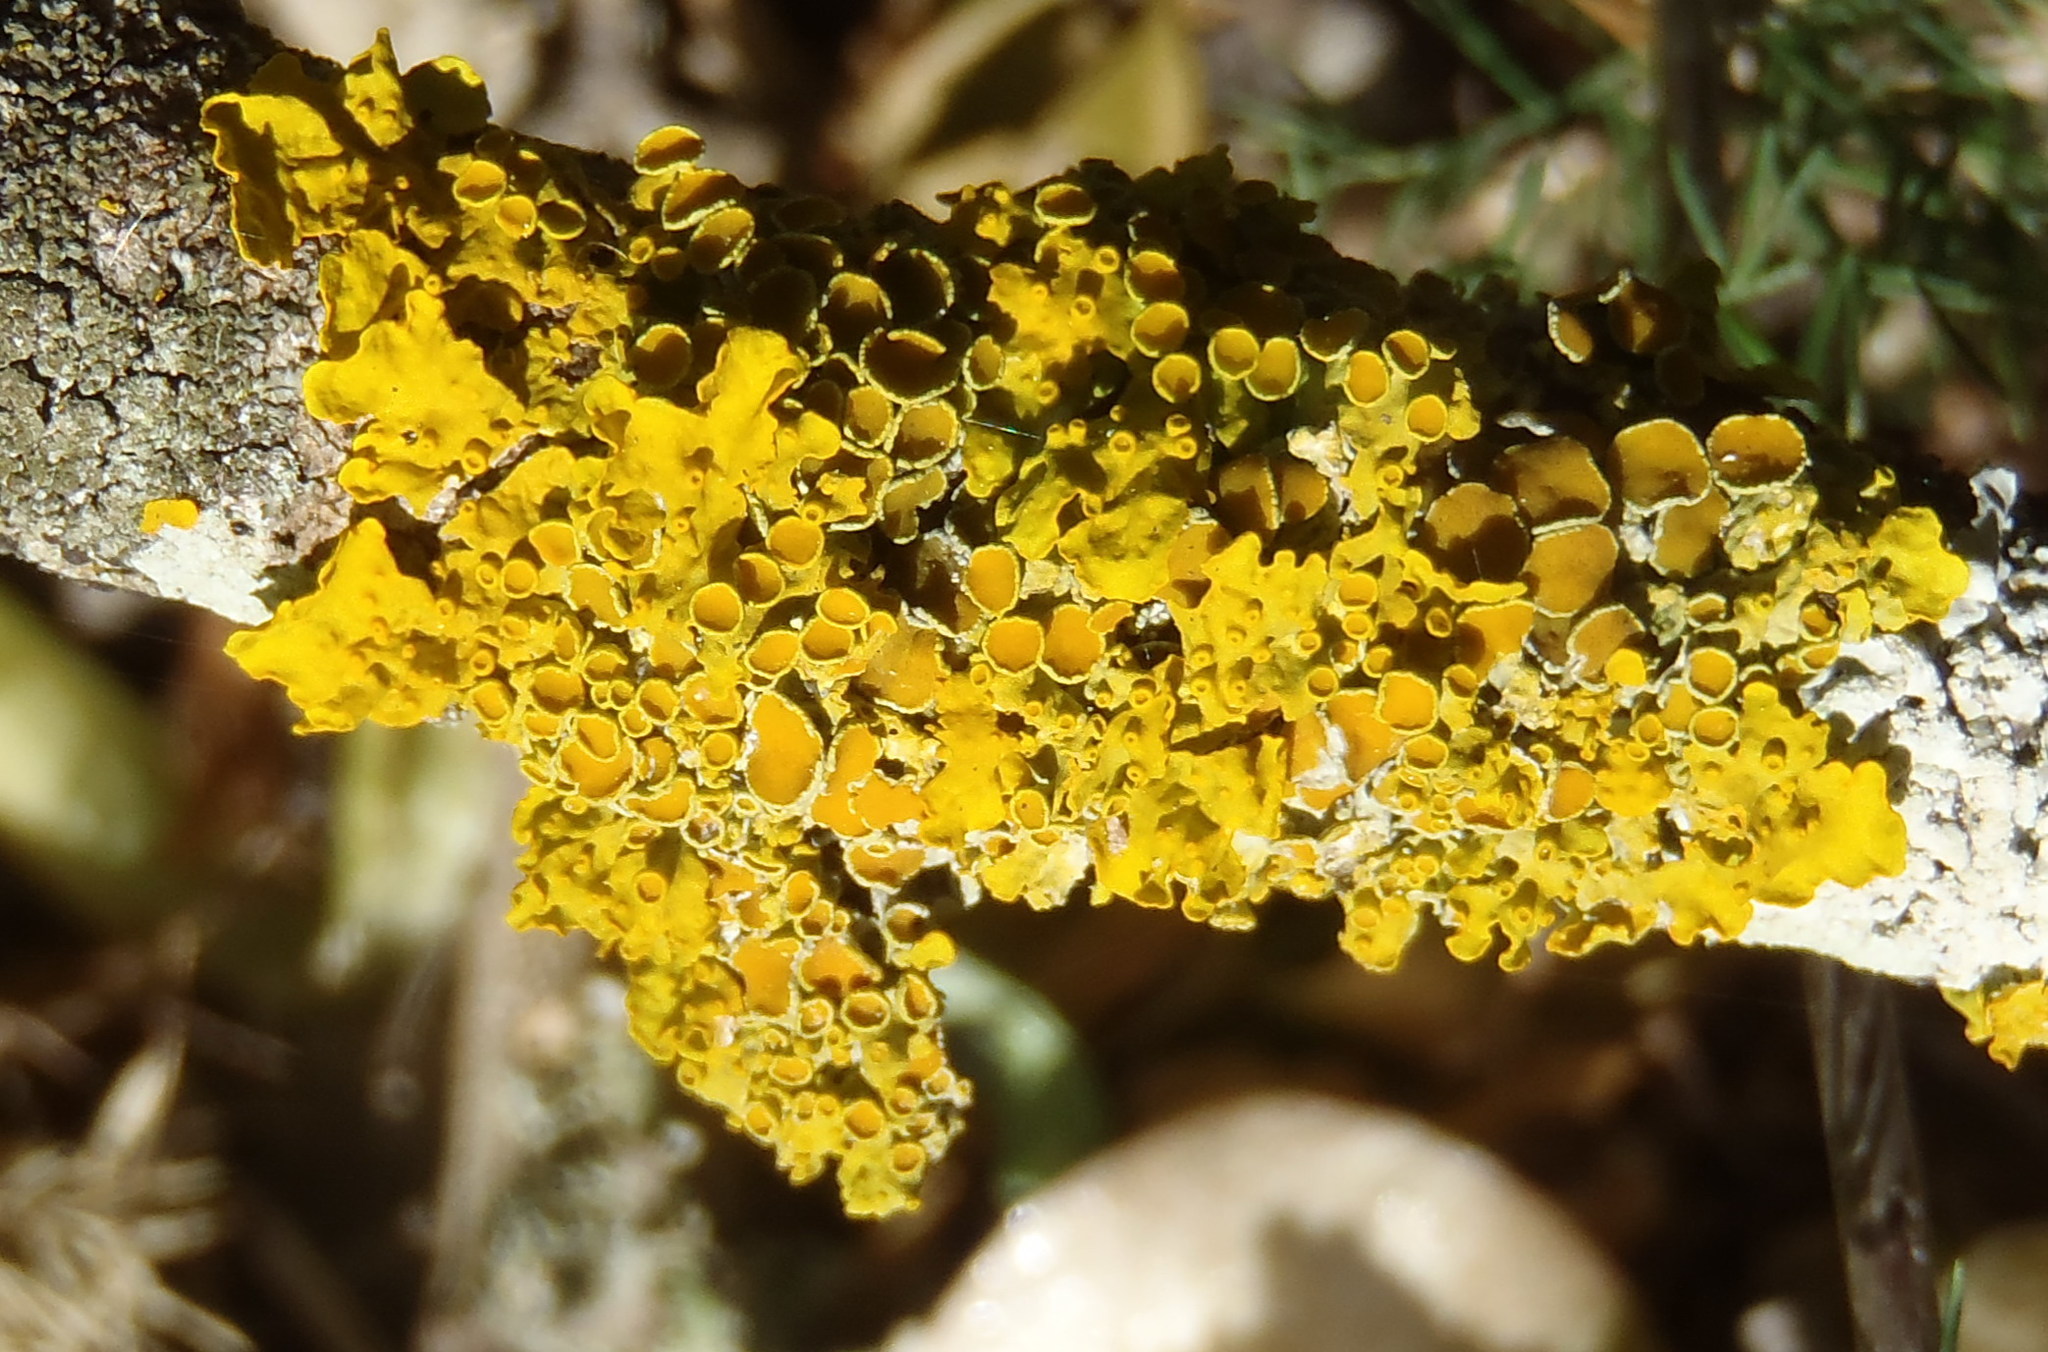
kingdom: Fungi
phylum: Ascomycota
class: Lecanoromycetes
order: Teloschistales
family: Teloschistaceae
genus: Xanthoria
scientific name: Xanthoria parietina
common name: Common orange lichen
